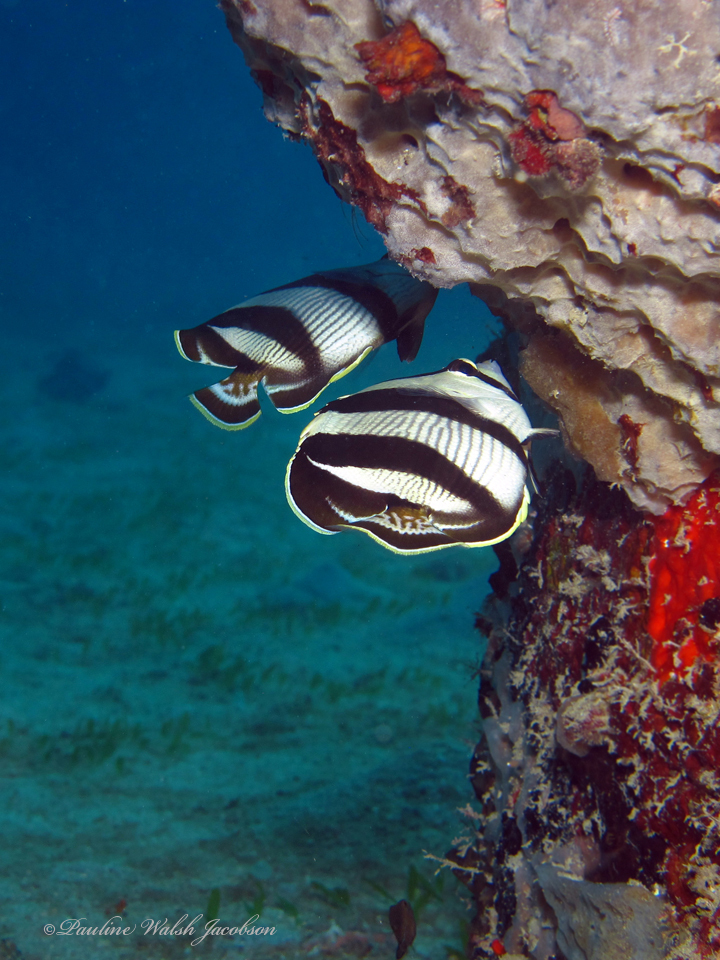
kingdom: Animalia
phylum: Chordata
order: Perciformes
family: Chaetodontidae
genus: Chaetodon
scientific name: Chaetodon striatus
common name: Banded butterflyfish
